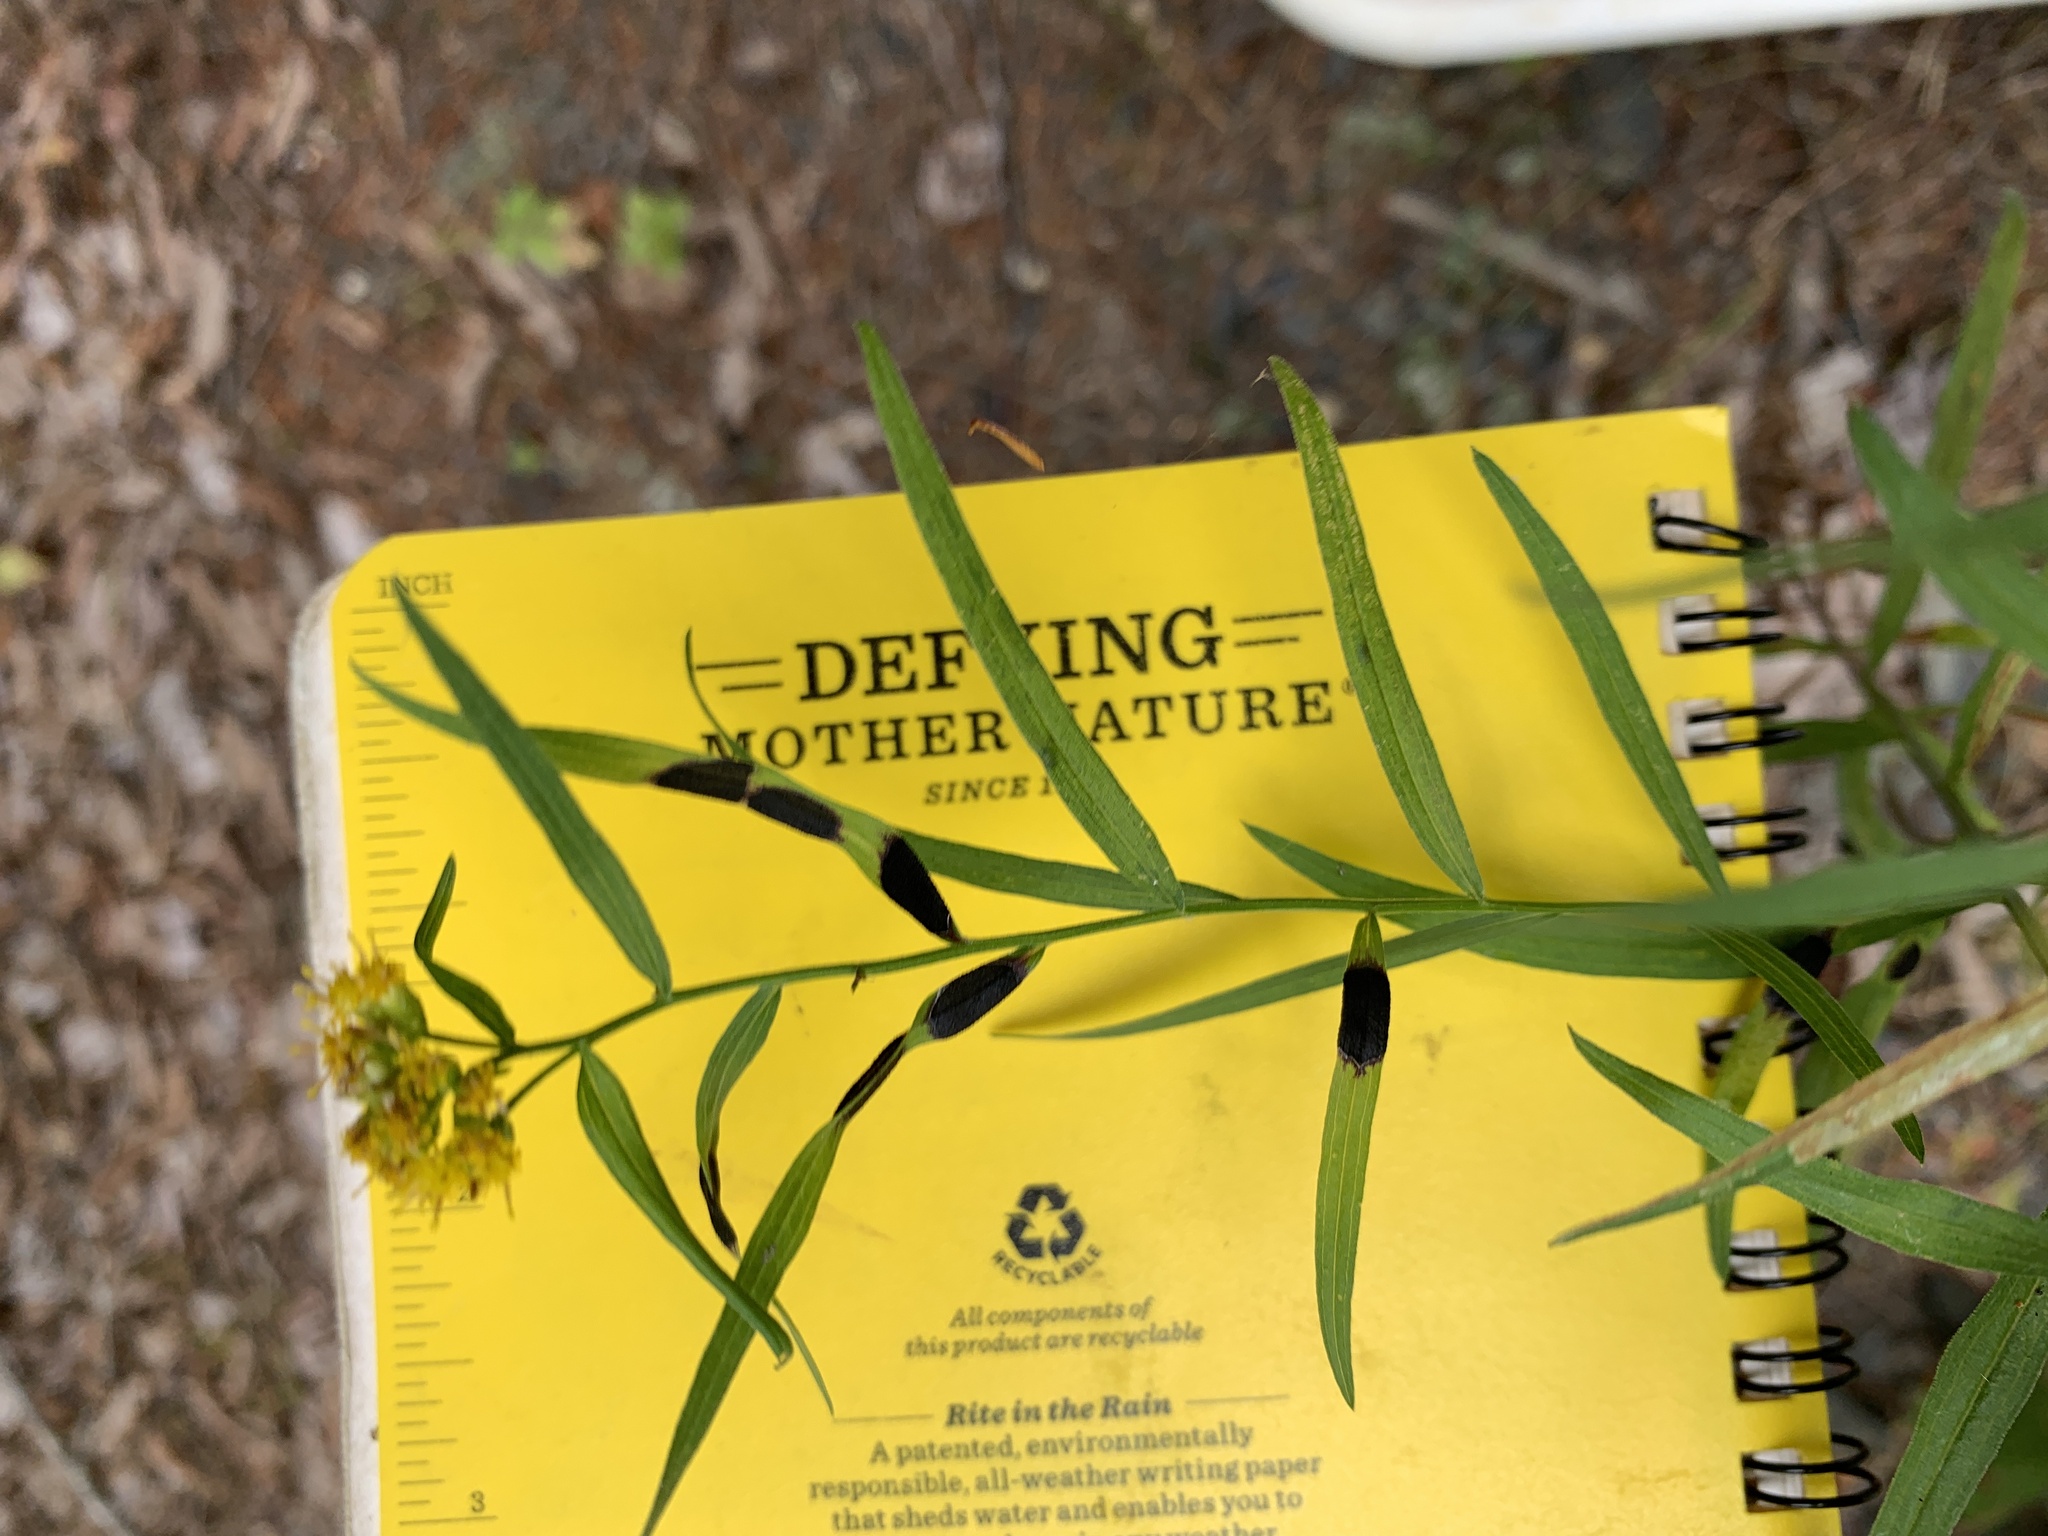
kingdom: Animalia
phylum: Arthropoda
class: Insecta
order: Diptera
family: Cecidomyiidae
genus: Asteromyia
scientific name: Asteromyia euthamiae
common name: Euthamia leaf gall midge
